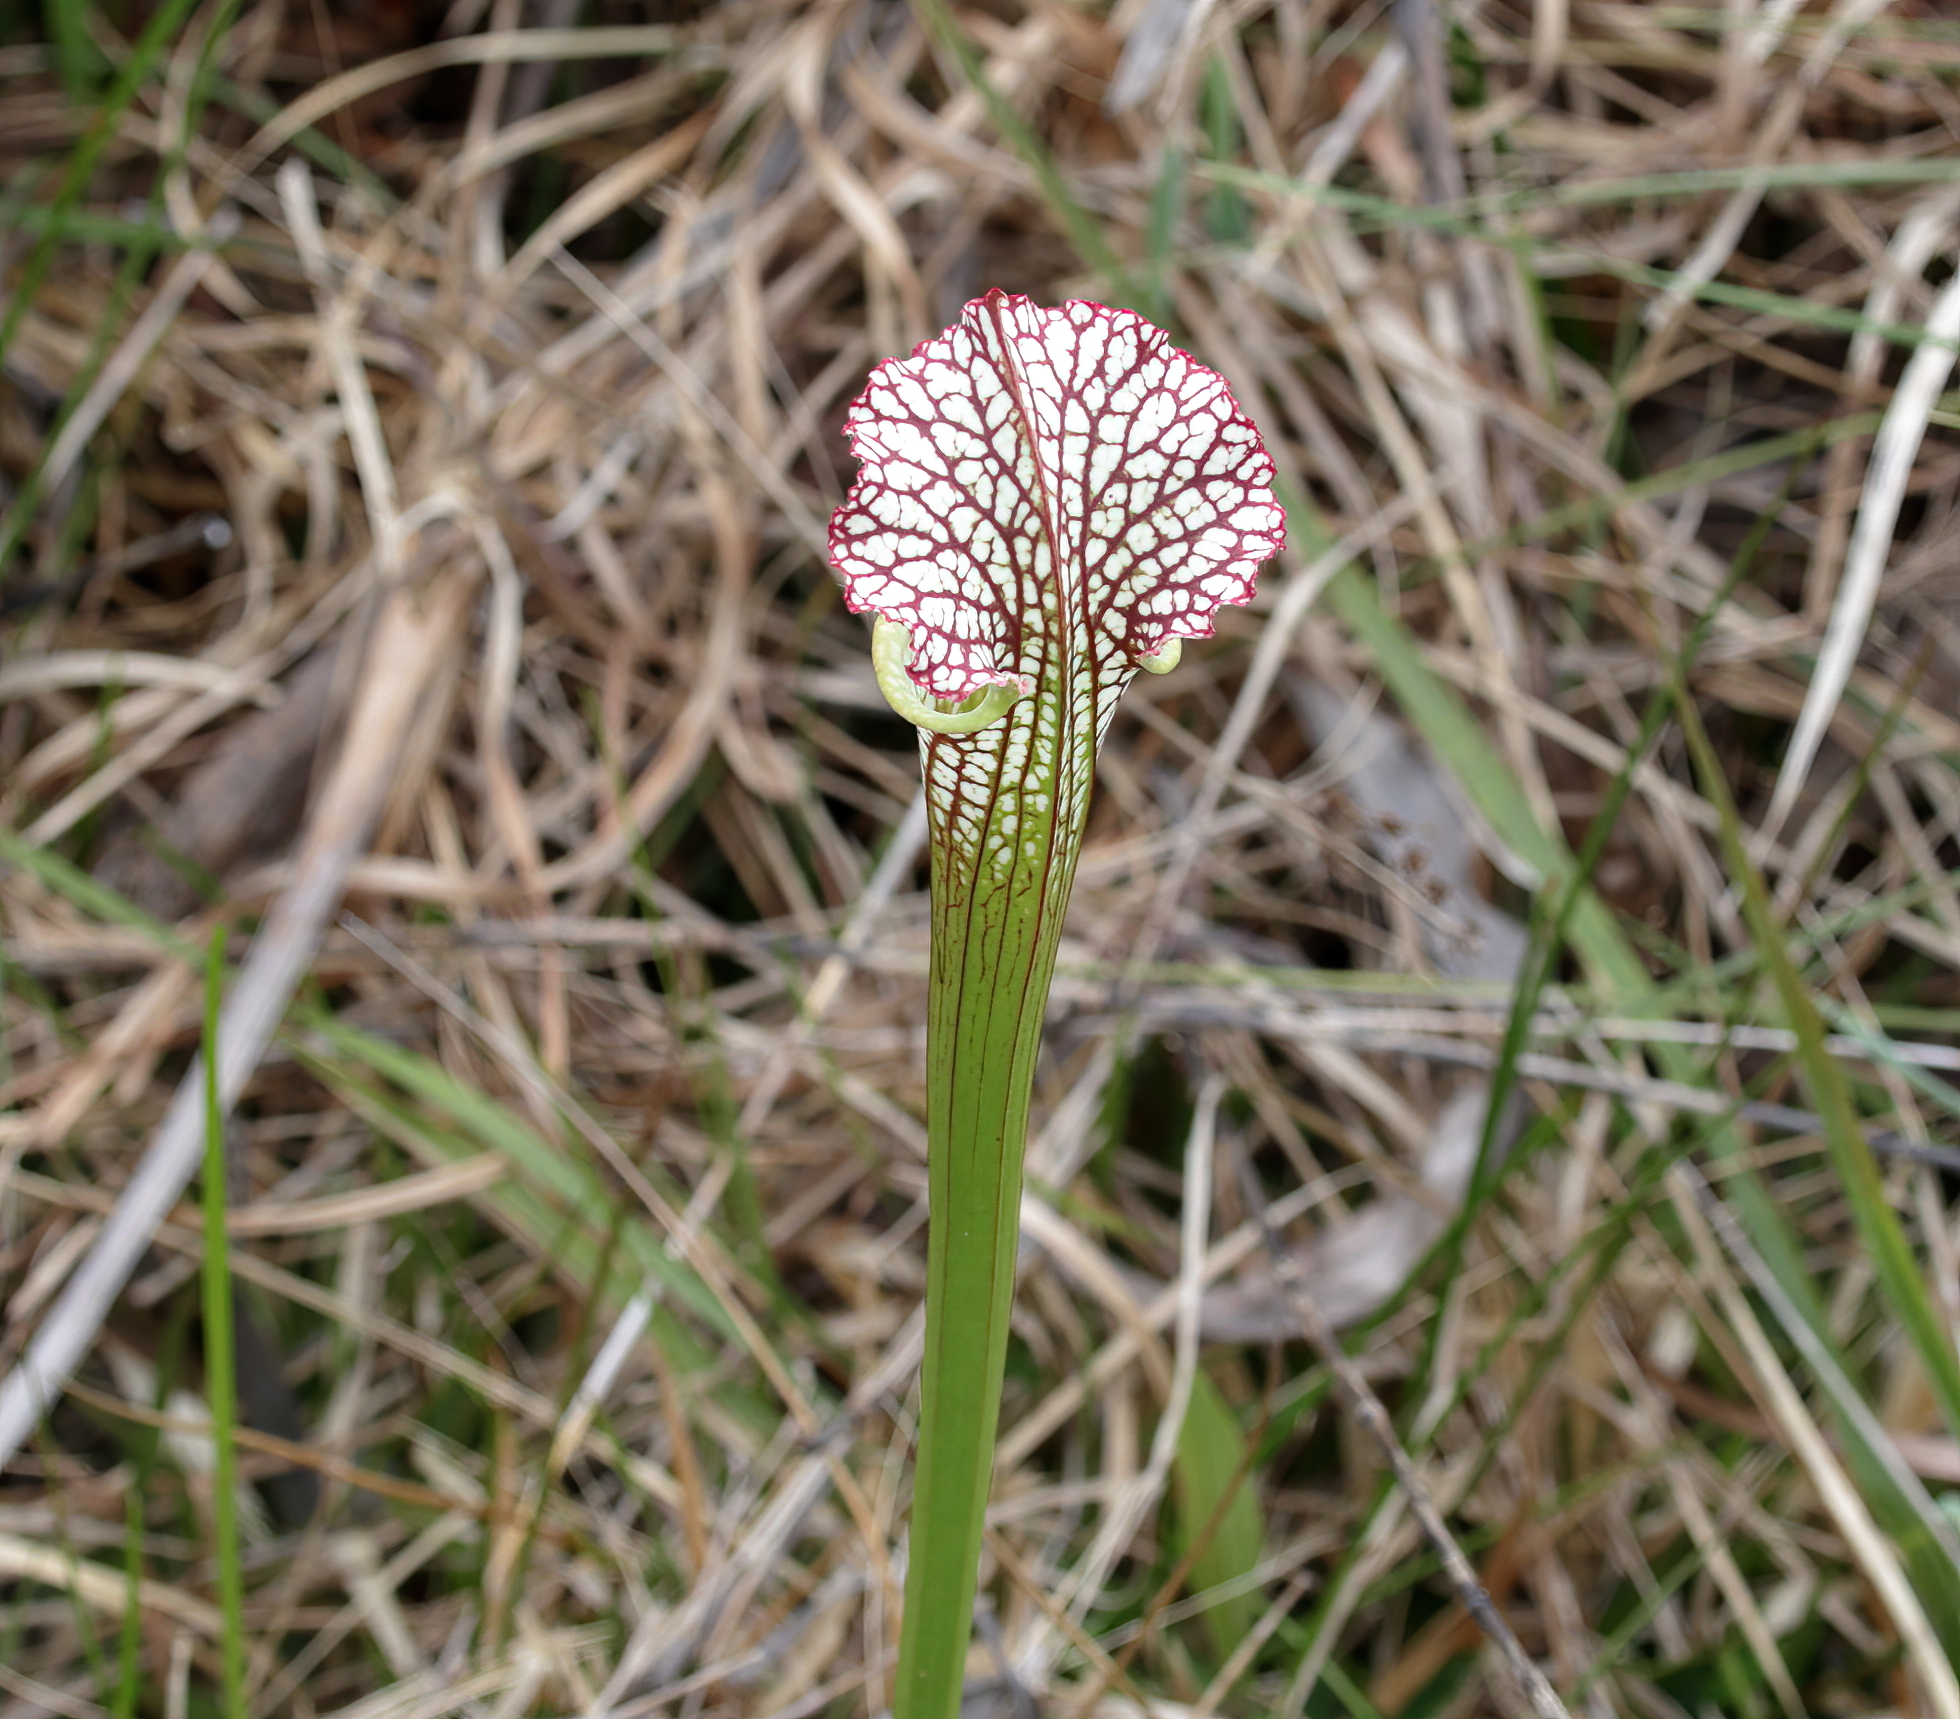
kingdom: Plantae
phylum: Tracheophyta
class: Magnoliopsida
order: Ericales
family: Sarraceniaceae
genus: Sarracenia
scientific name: Sarracenia leucophylla
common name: Purple trumpetleaf
